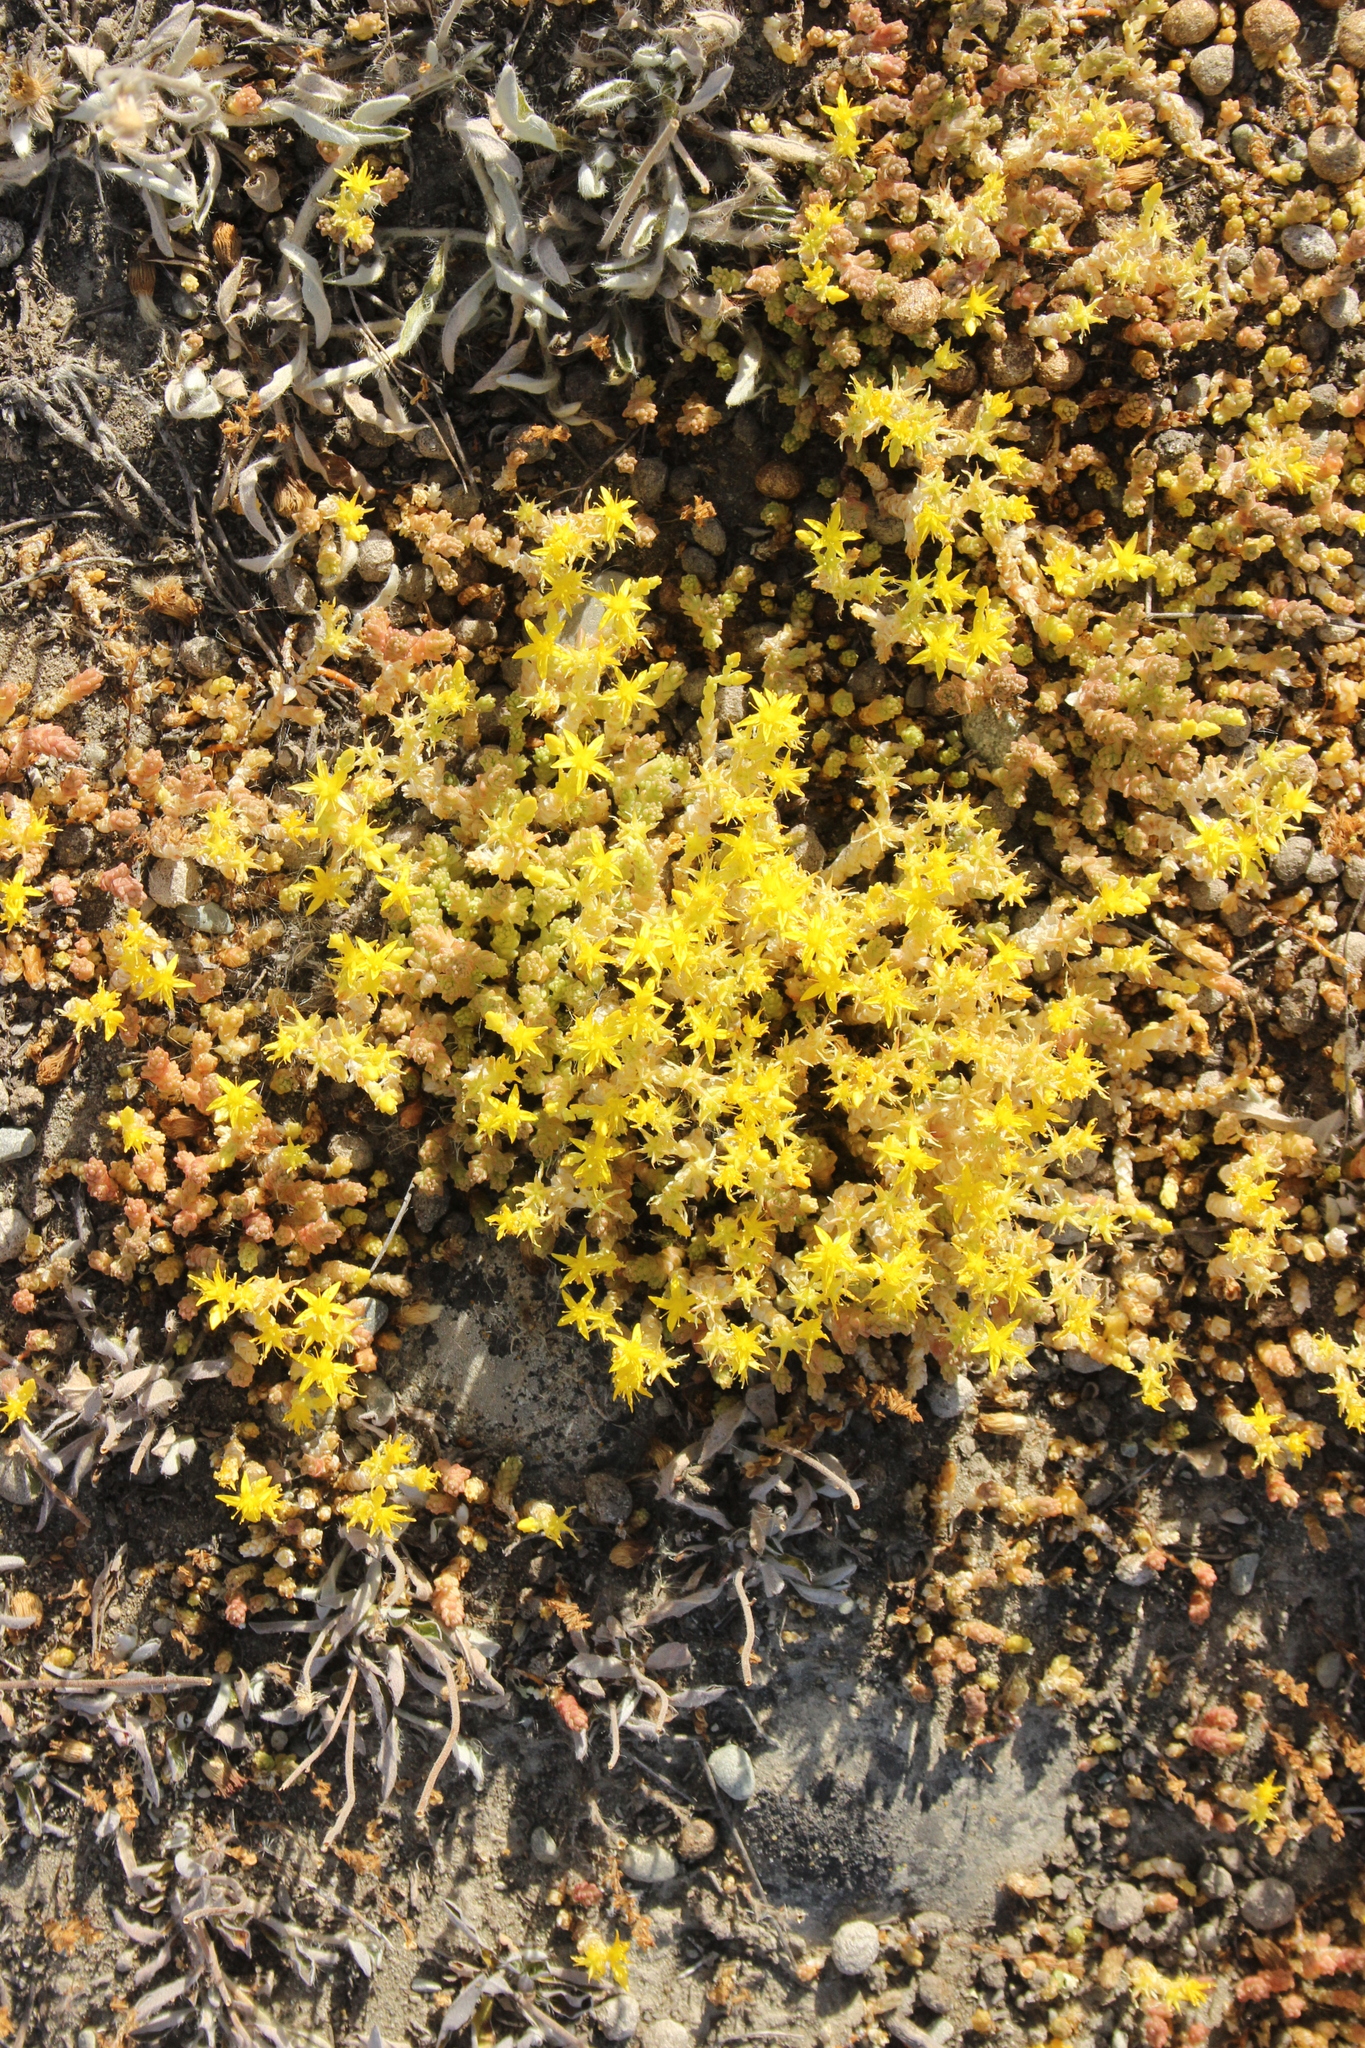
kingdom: Plantae
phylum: Tracheophyta
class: Magnoliopsida
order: Saxifragales
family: Crassulaceae
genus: Sedum
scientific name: Sedum acre
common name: Biting stonecrop
